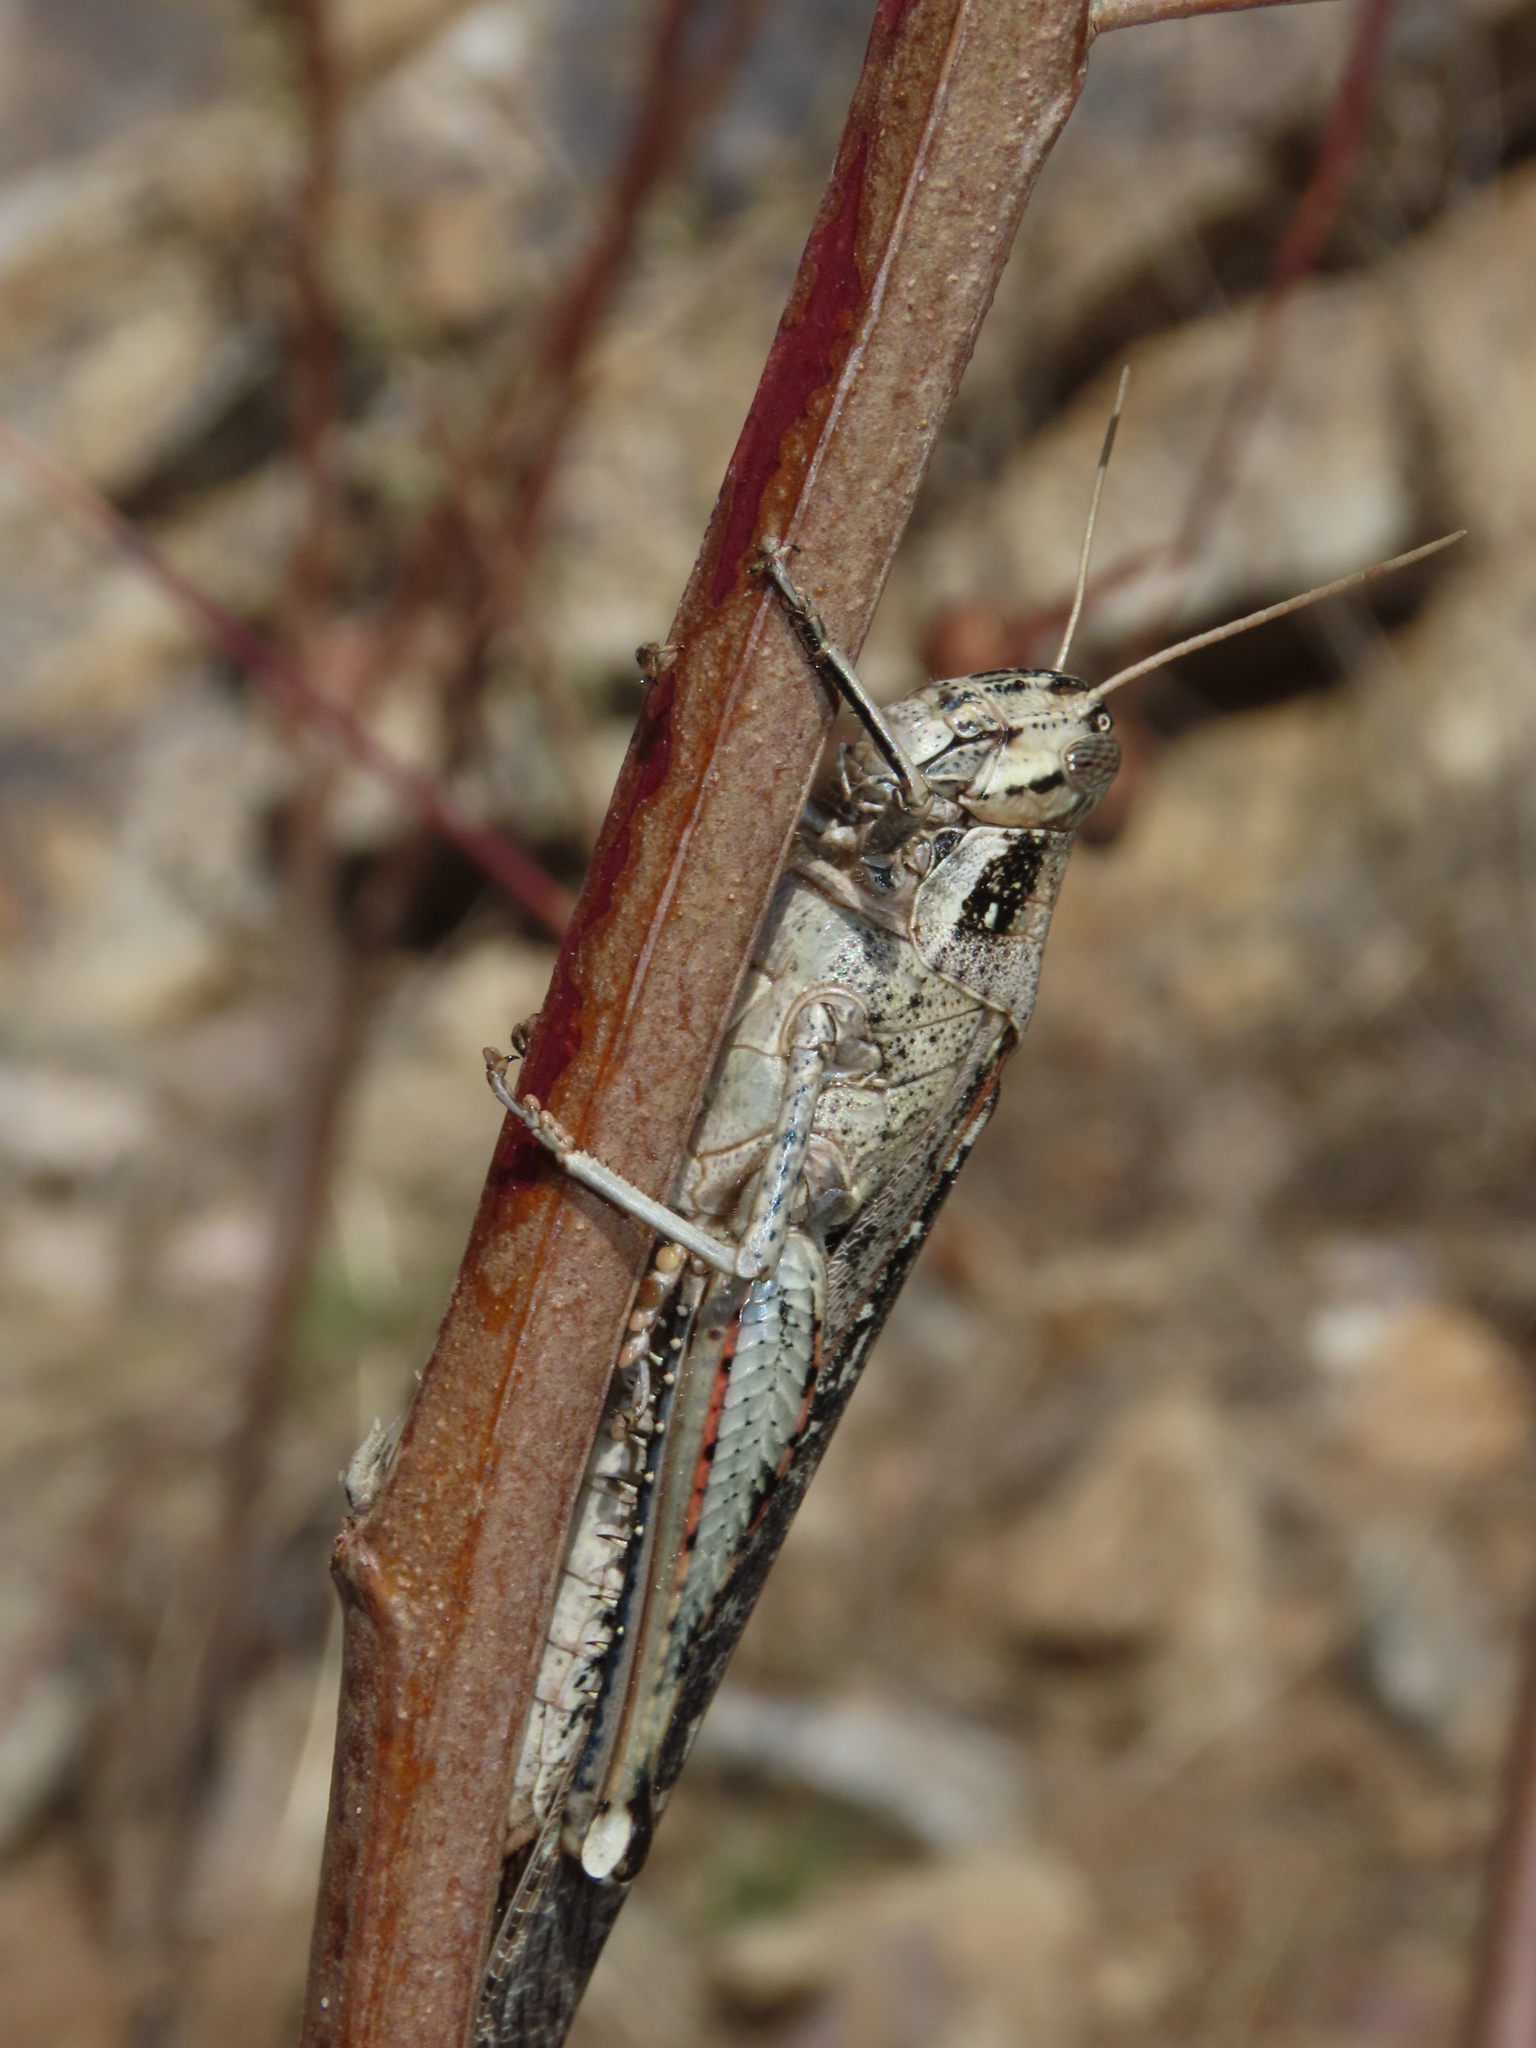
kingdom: Animalia
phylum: Arthropoda
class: Insecta
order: Orthoptera
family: Acrididae
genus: Schistocerca
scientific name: Schistocerca nitens
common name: Vagrant grasshopper
